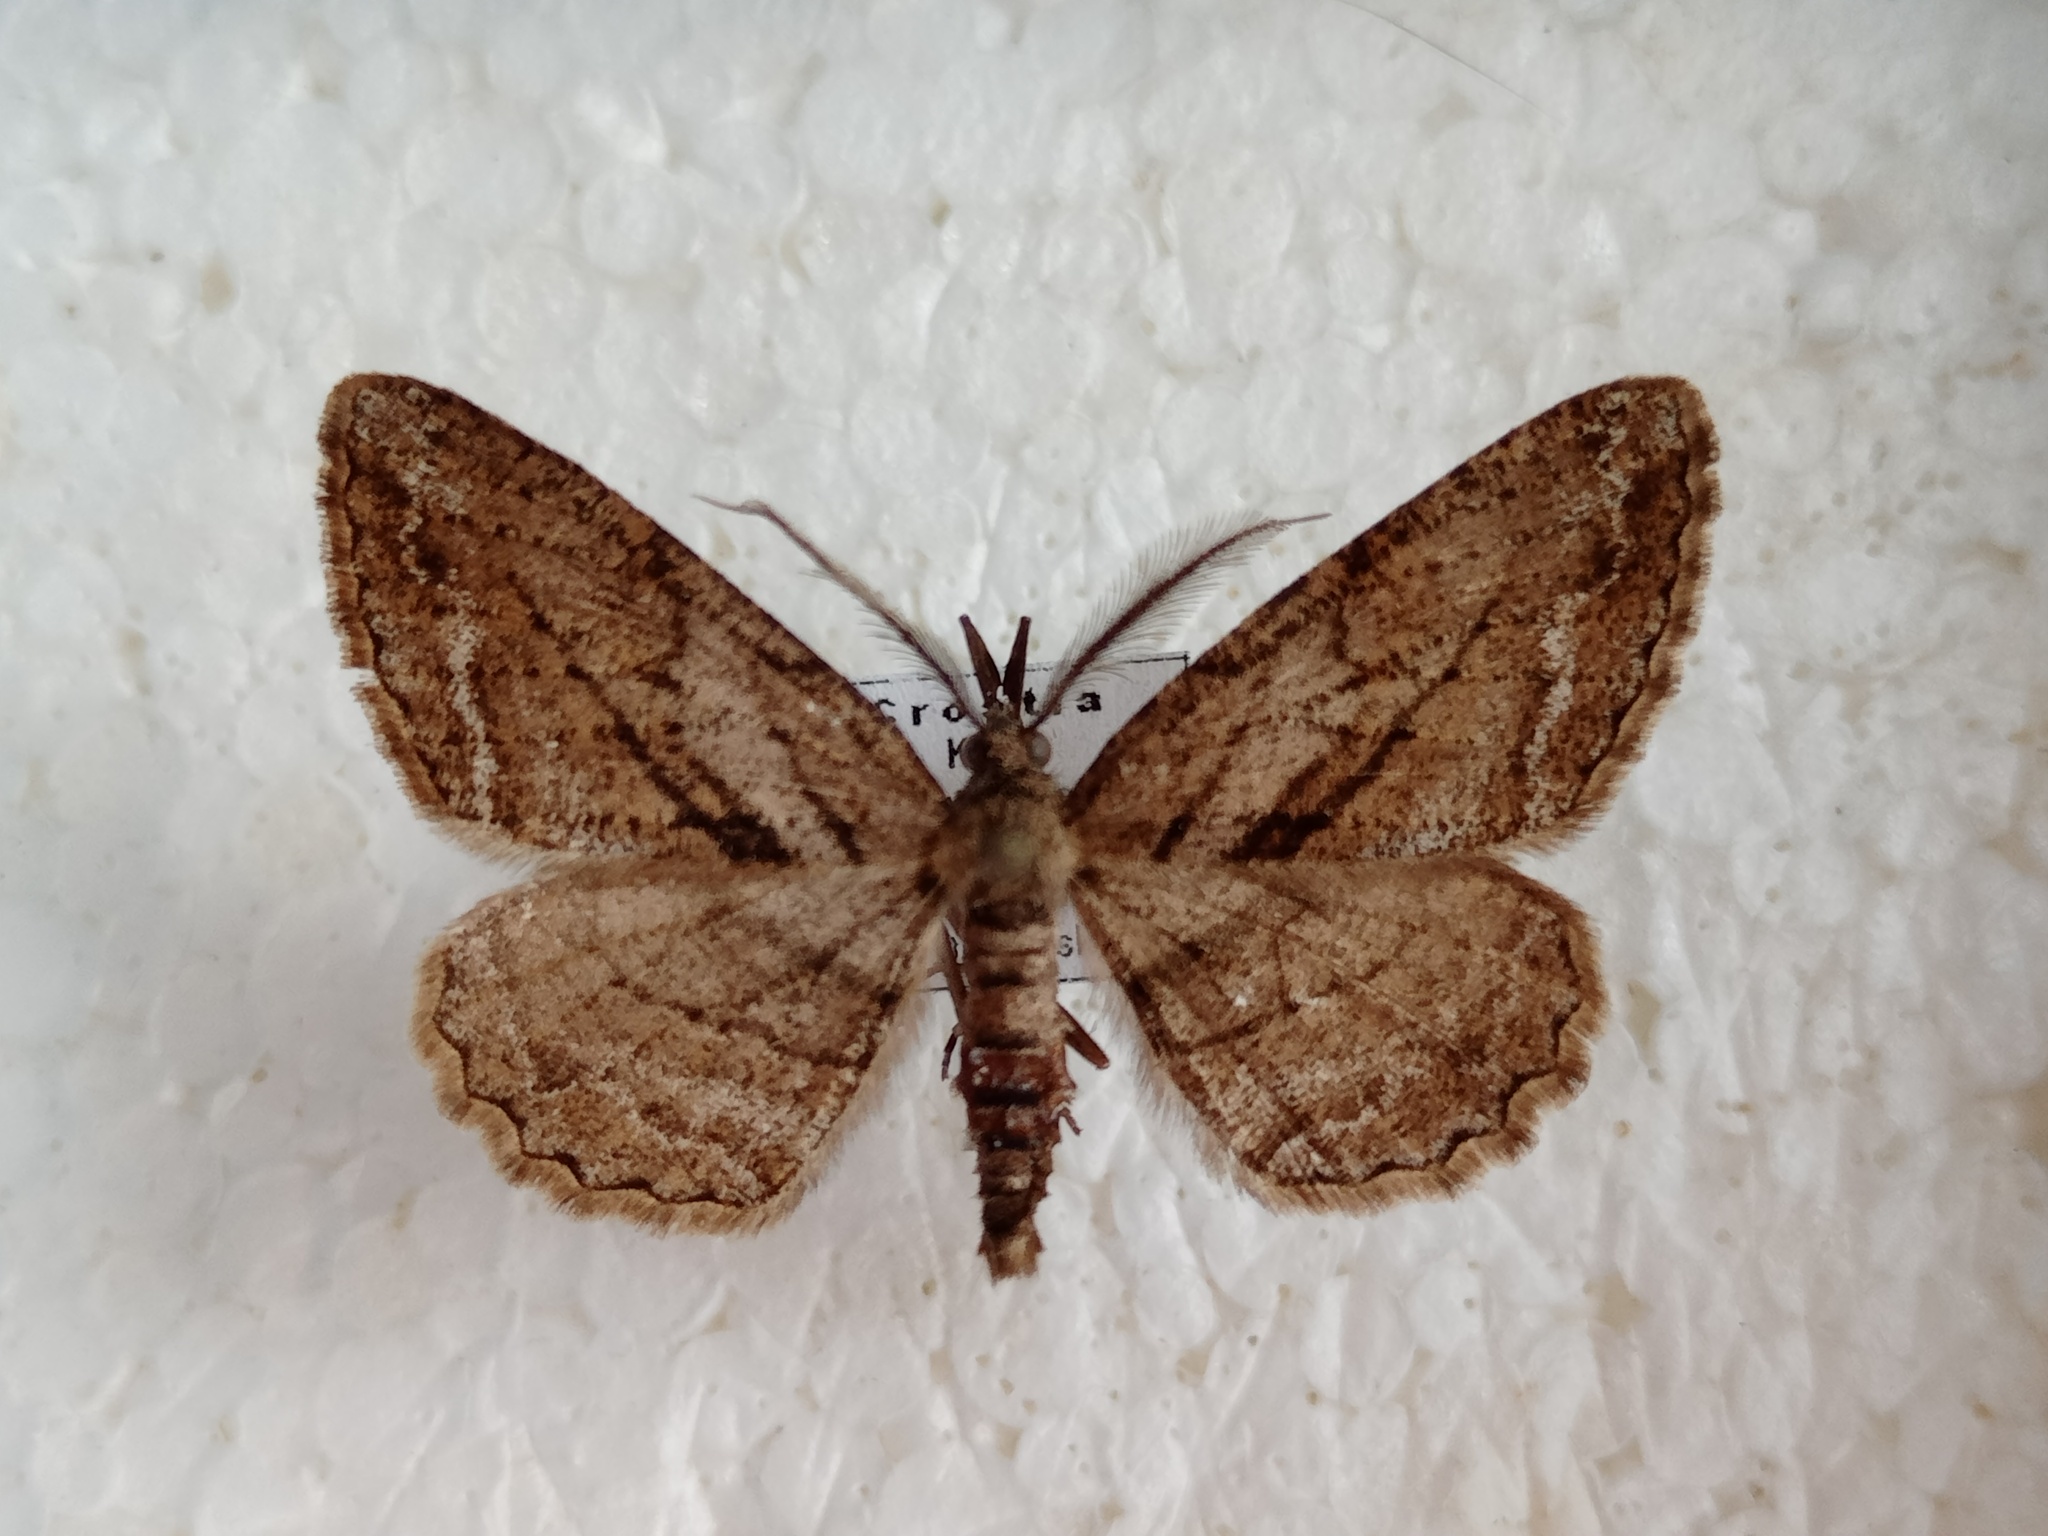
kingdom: Animalia
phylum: Arthropoda
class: Insecta
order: Lepidoptera
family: Geometridae
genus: Peribatodes
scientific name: Peribatodes correptaria
